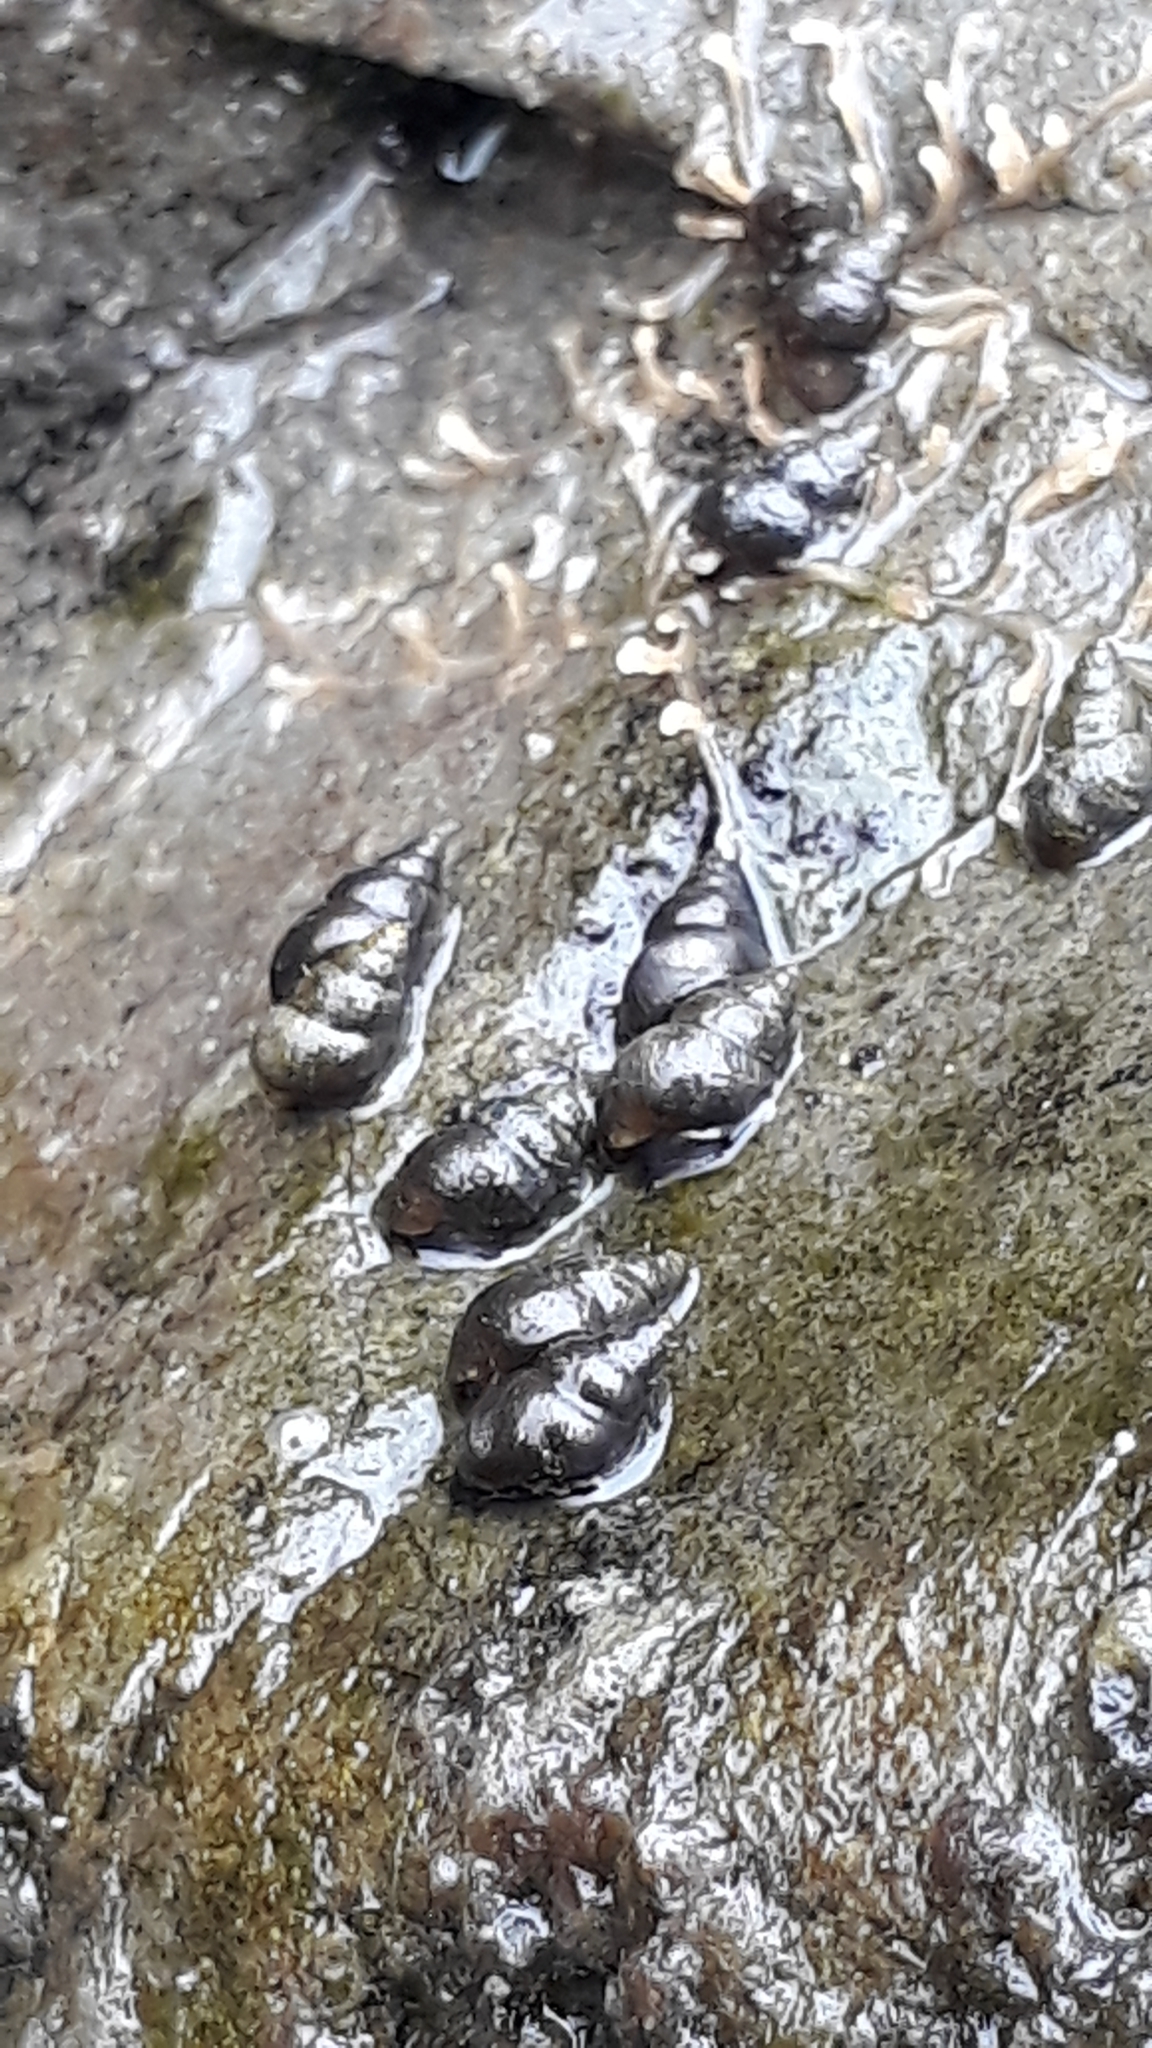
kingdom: Animalia
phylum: Mollusca
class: Gastropoda
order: Littorinimorpha
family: Tateidae
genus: Potamopyrgus
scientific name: Potamopyrgus antipodarum
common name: Jenkins' spire snail
